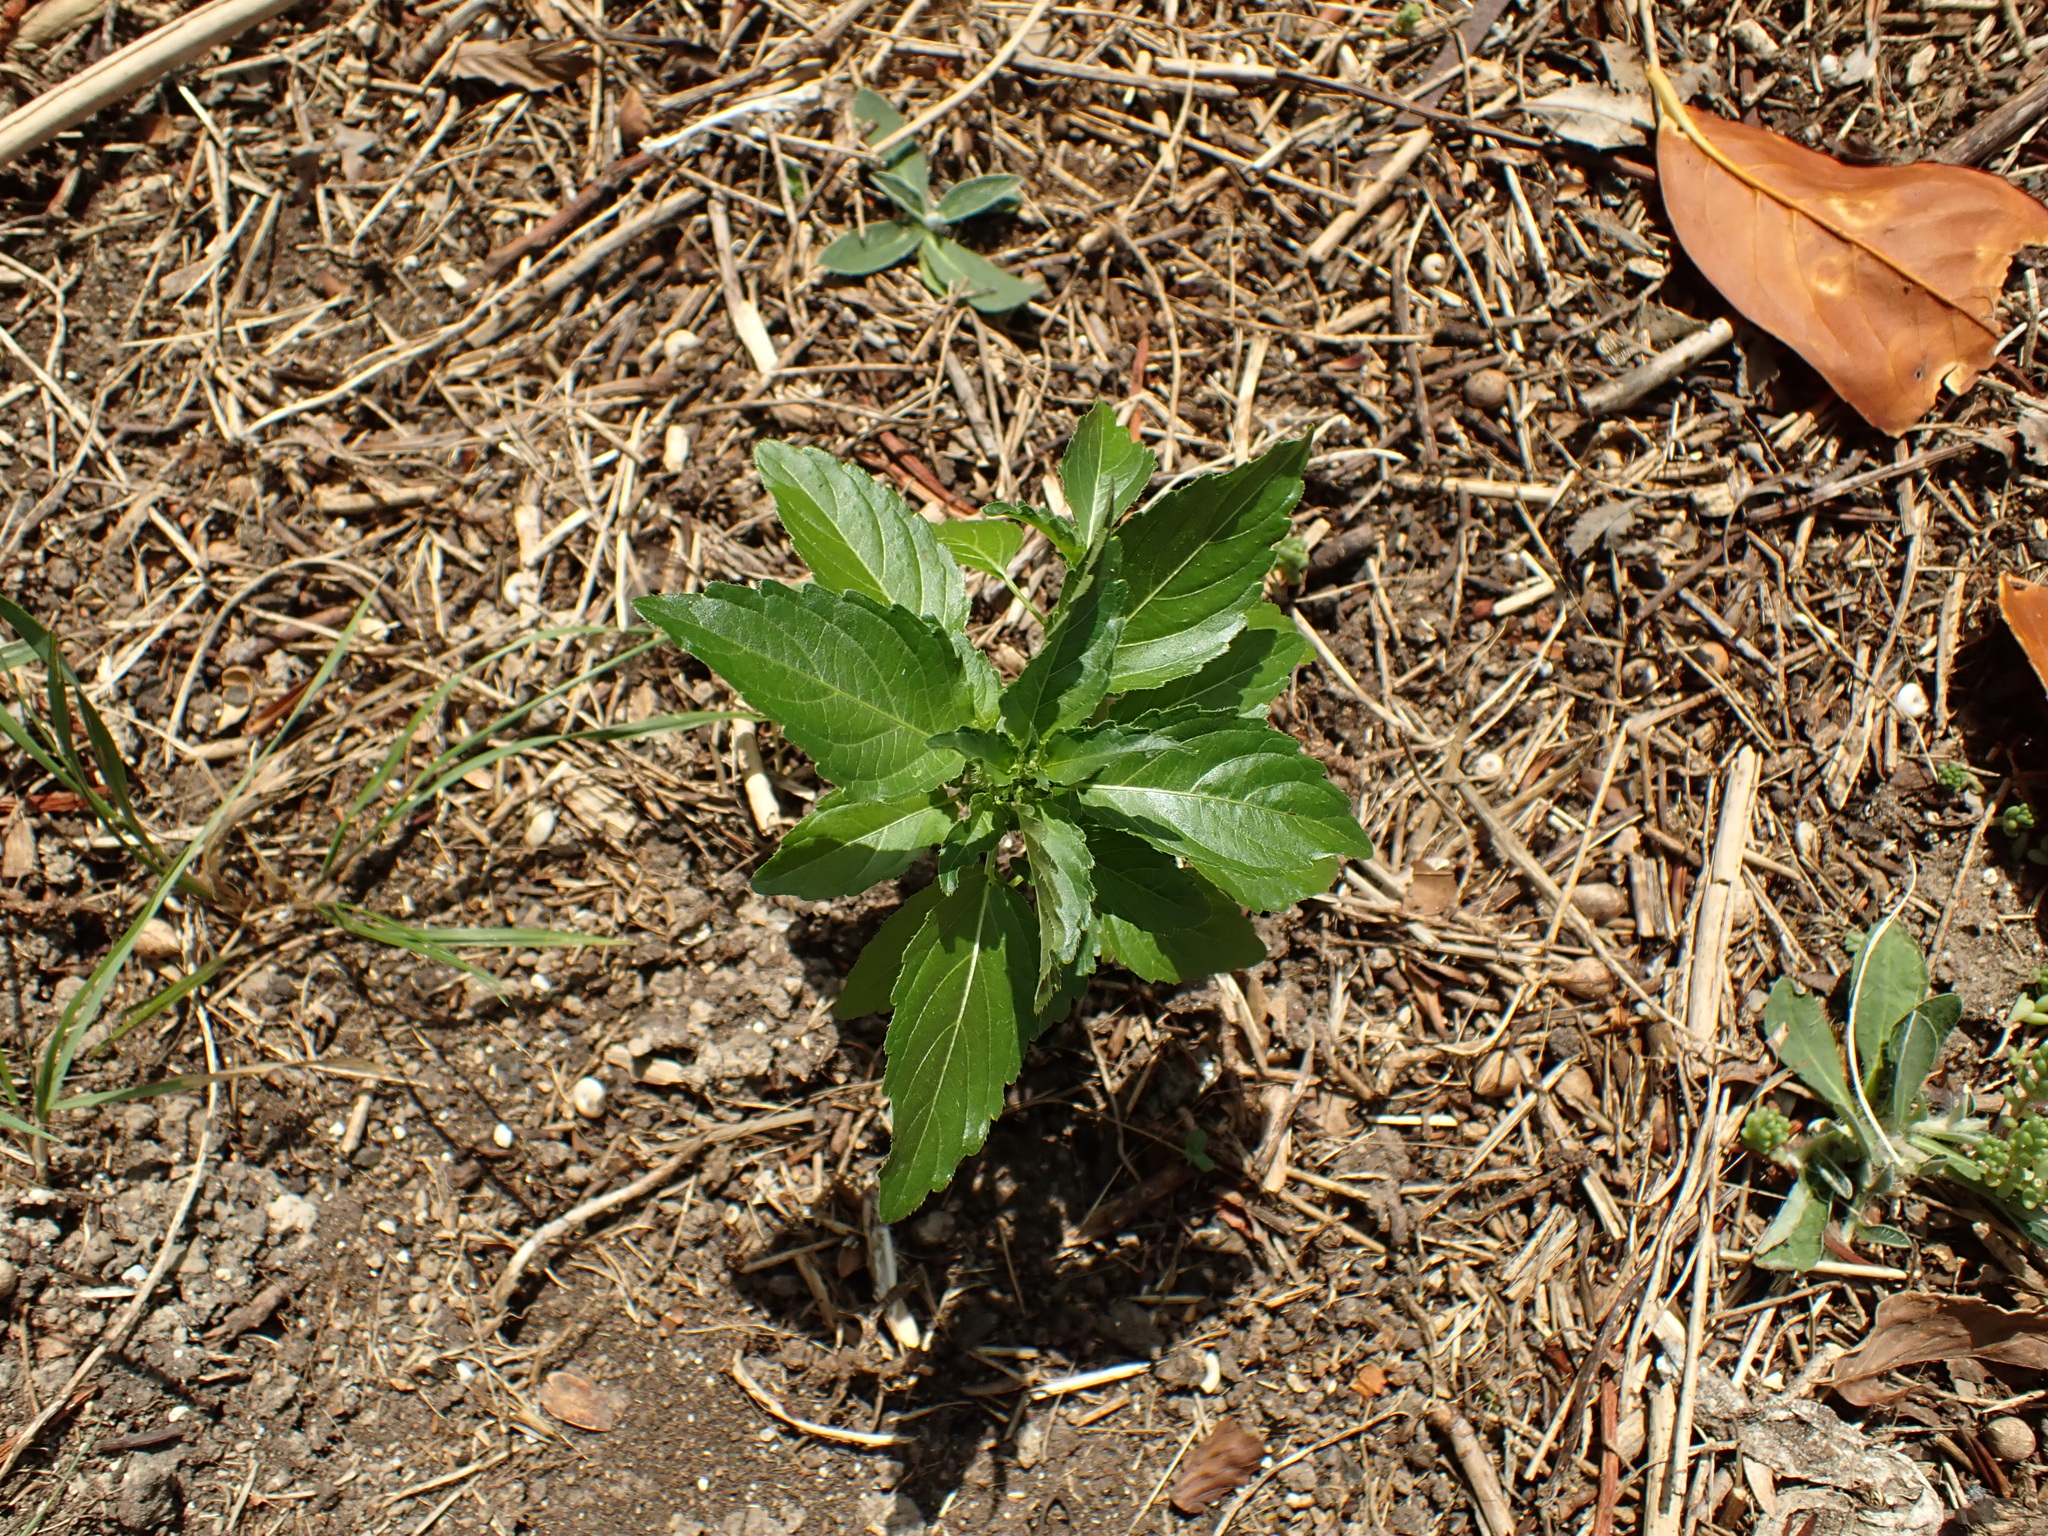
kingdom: Plantae
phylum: Tracheophyta
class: Magnoliopsida
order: Malpighiales
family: Euphorbiaceae
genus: Mercurialis
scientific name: Mercurialis annua
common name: Annual mercury
